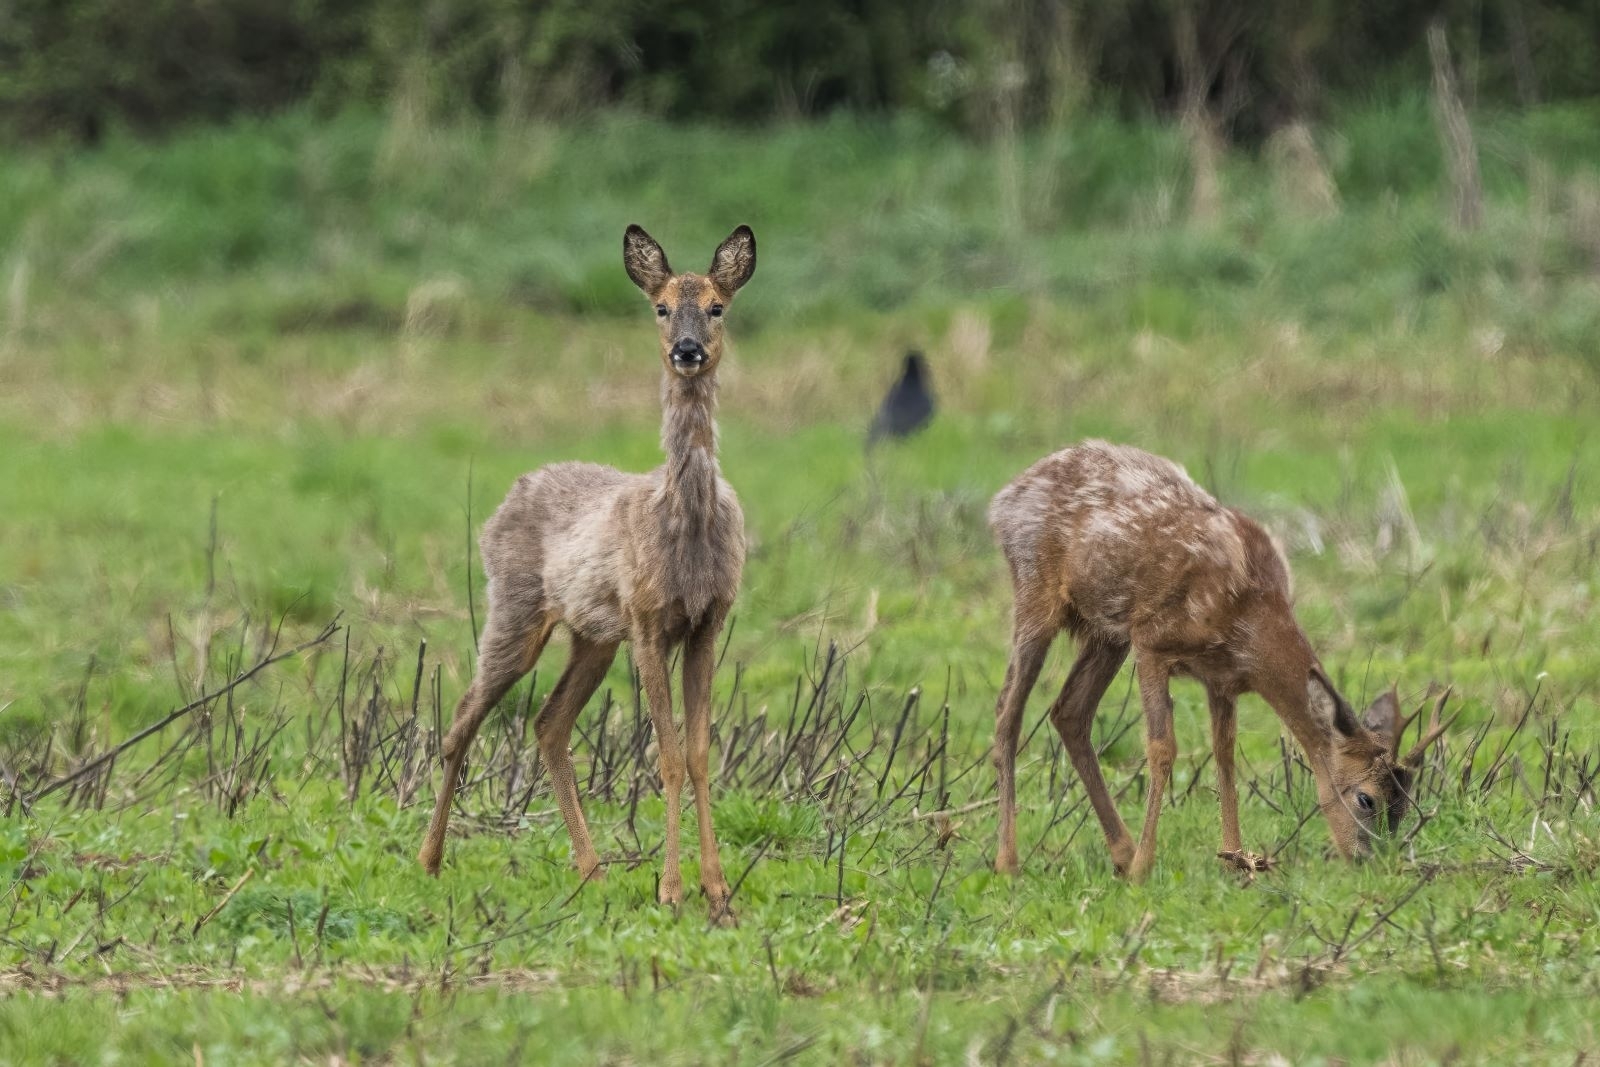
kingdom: Animalia
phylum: Chordata
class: Mammalia
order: Artiodactyla
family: Cervidae
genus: Capreolus
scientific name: Capreolus capreolus
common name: Western roe deer
